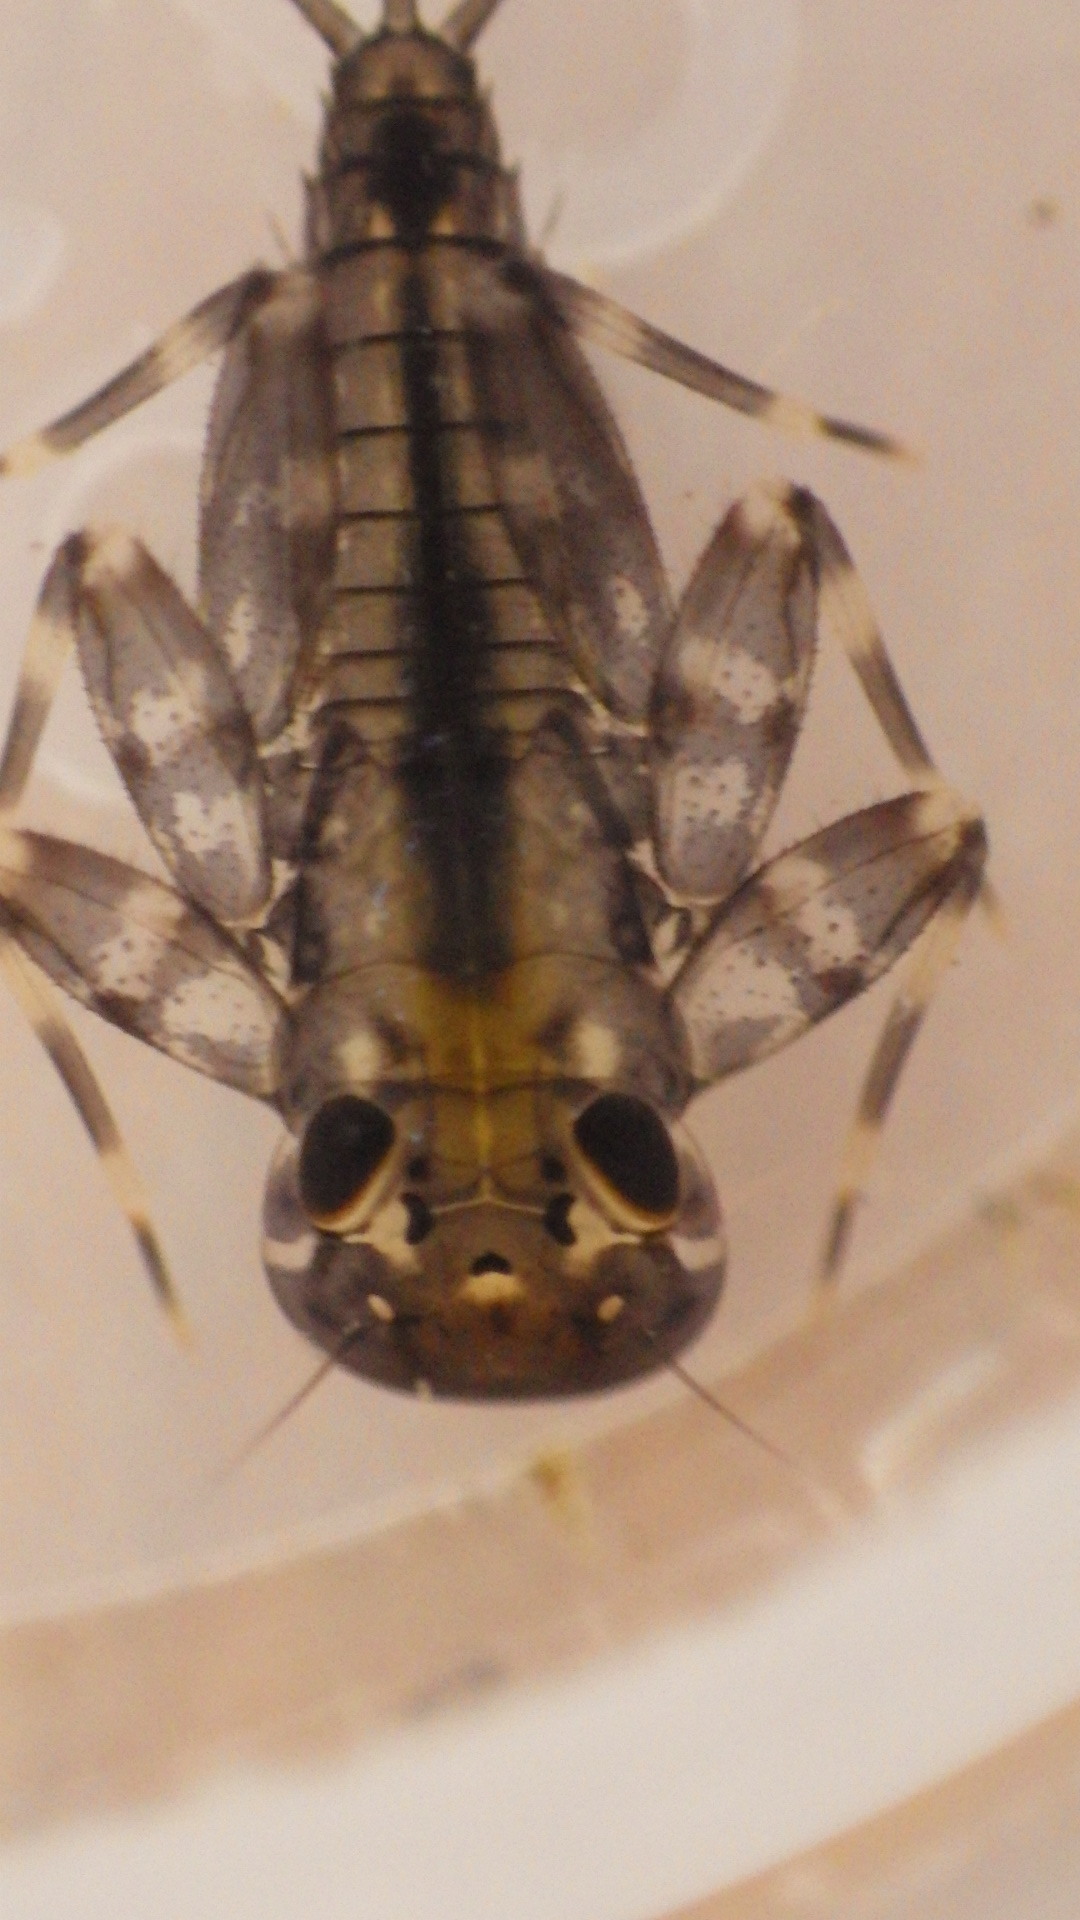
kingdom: Animalia
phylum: Arthropoda
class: Insecta
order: Ephemeroptera
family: Heptageniidae
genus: Stenacron
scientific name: Stenacron carolina
